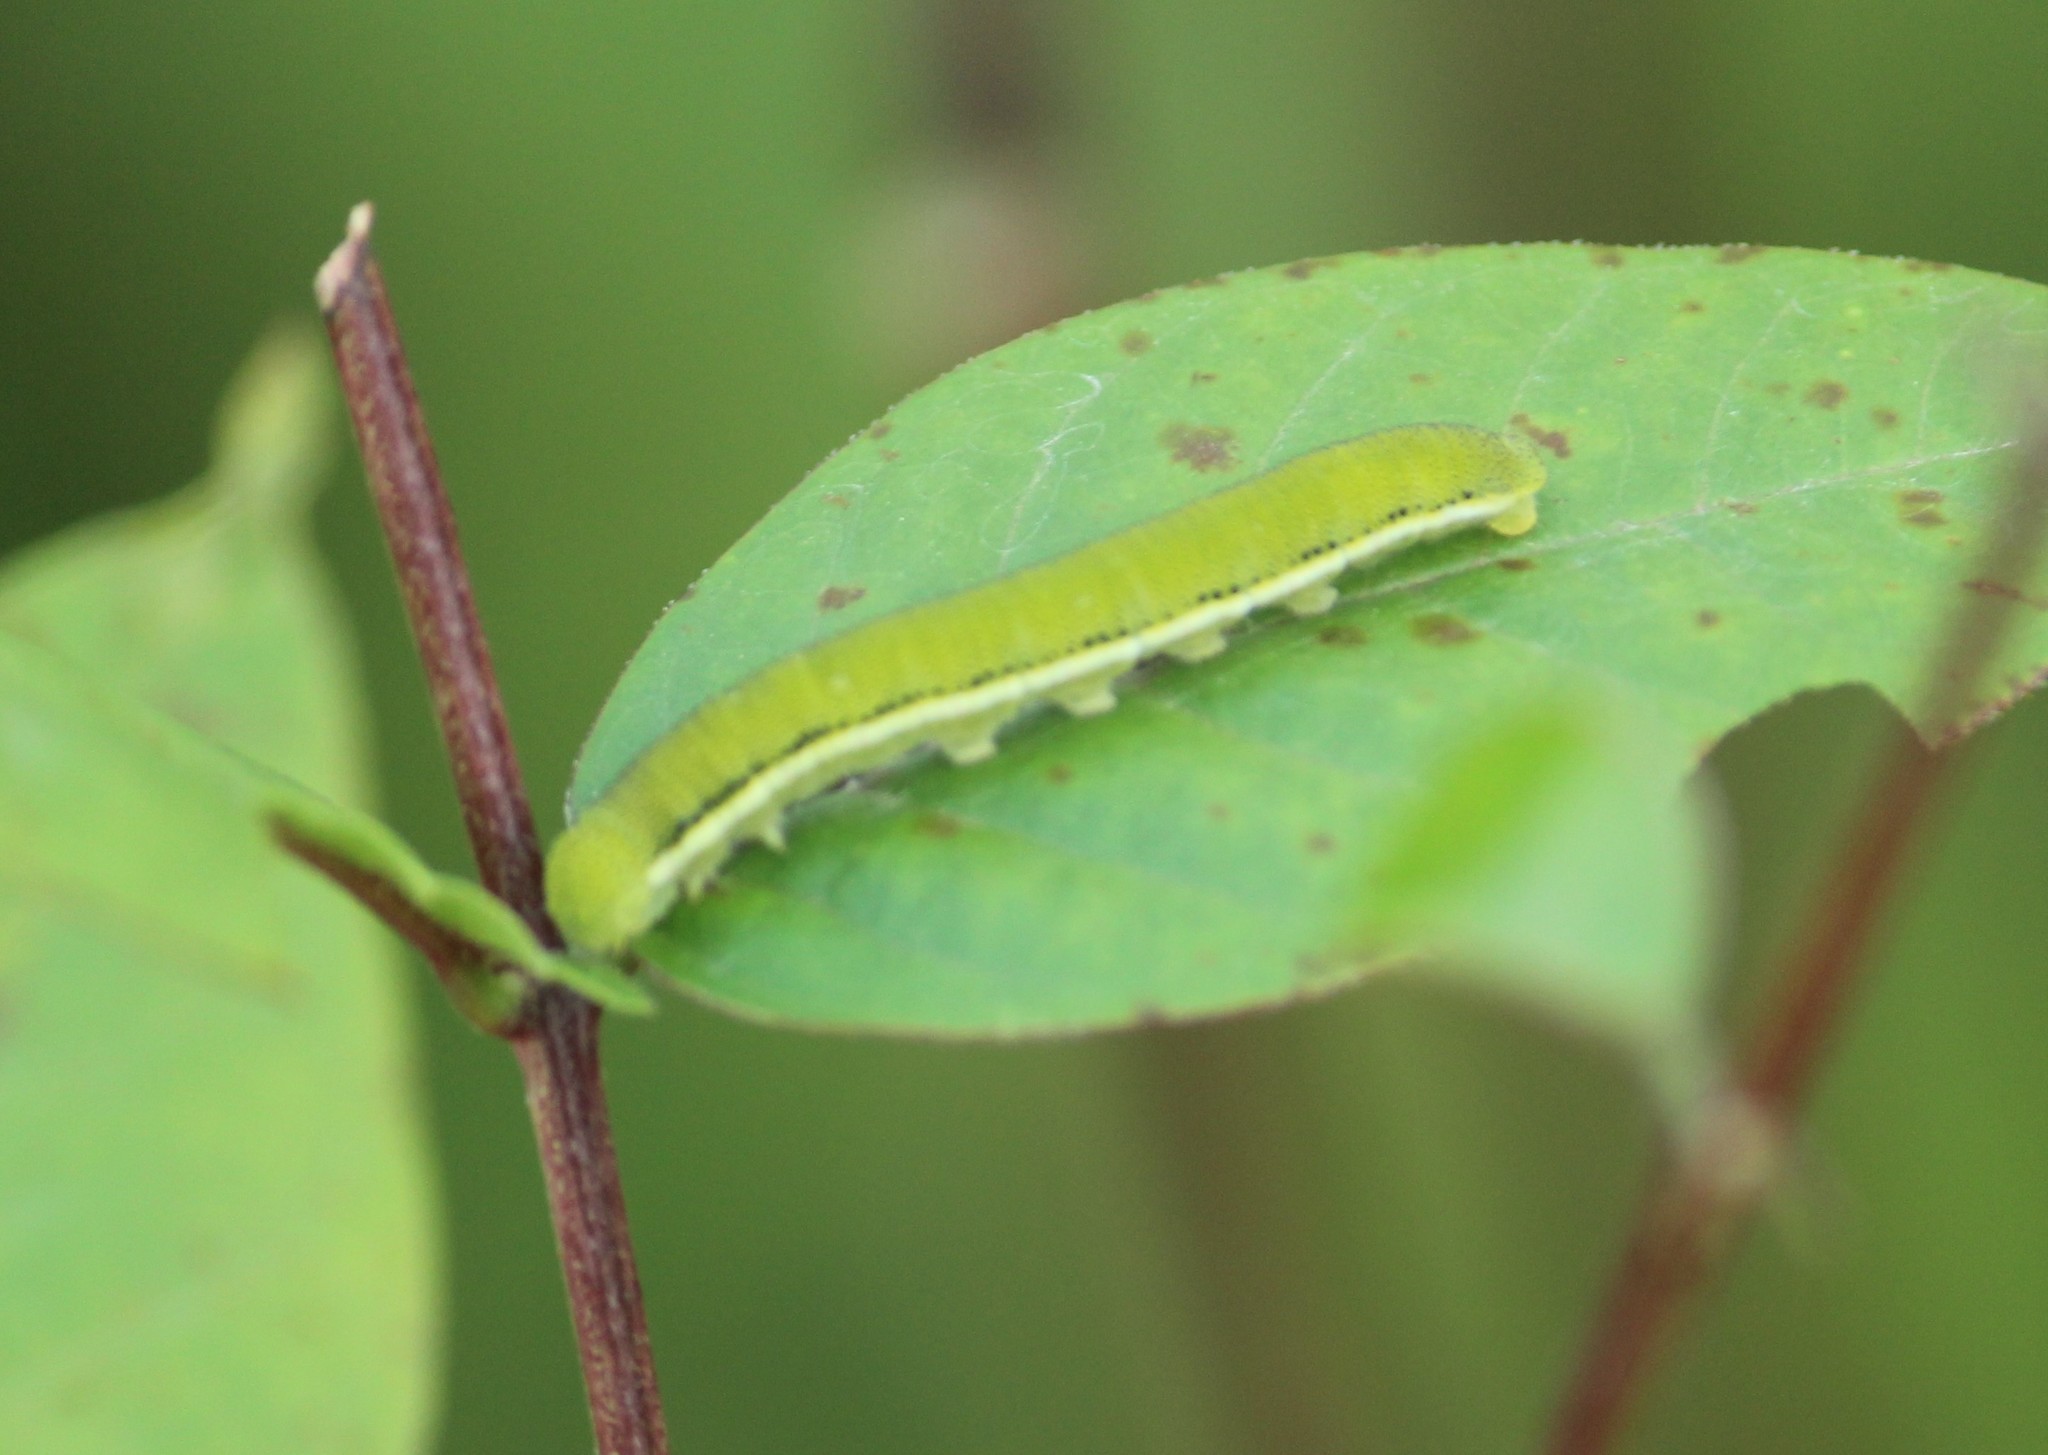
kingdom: Animalia
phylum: Arthropoda
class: Insecta
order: Lepidoptera
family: Pieridae
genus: Catopsilia
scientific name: Catopsilia pyranthe
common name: Mottled emigrant
